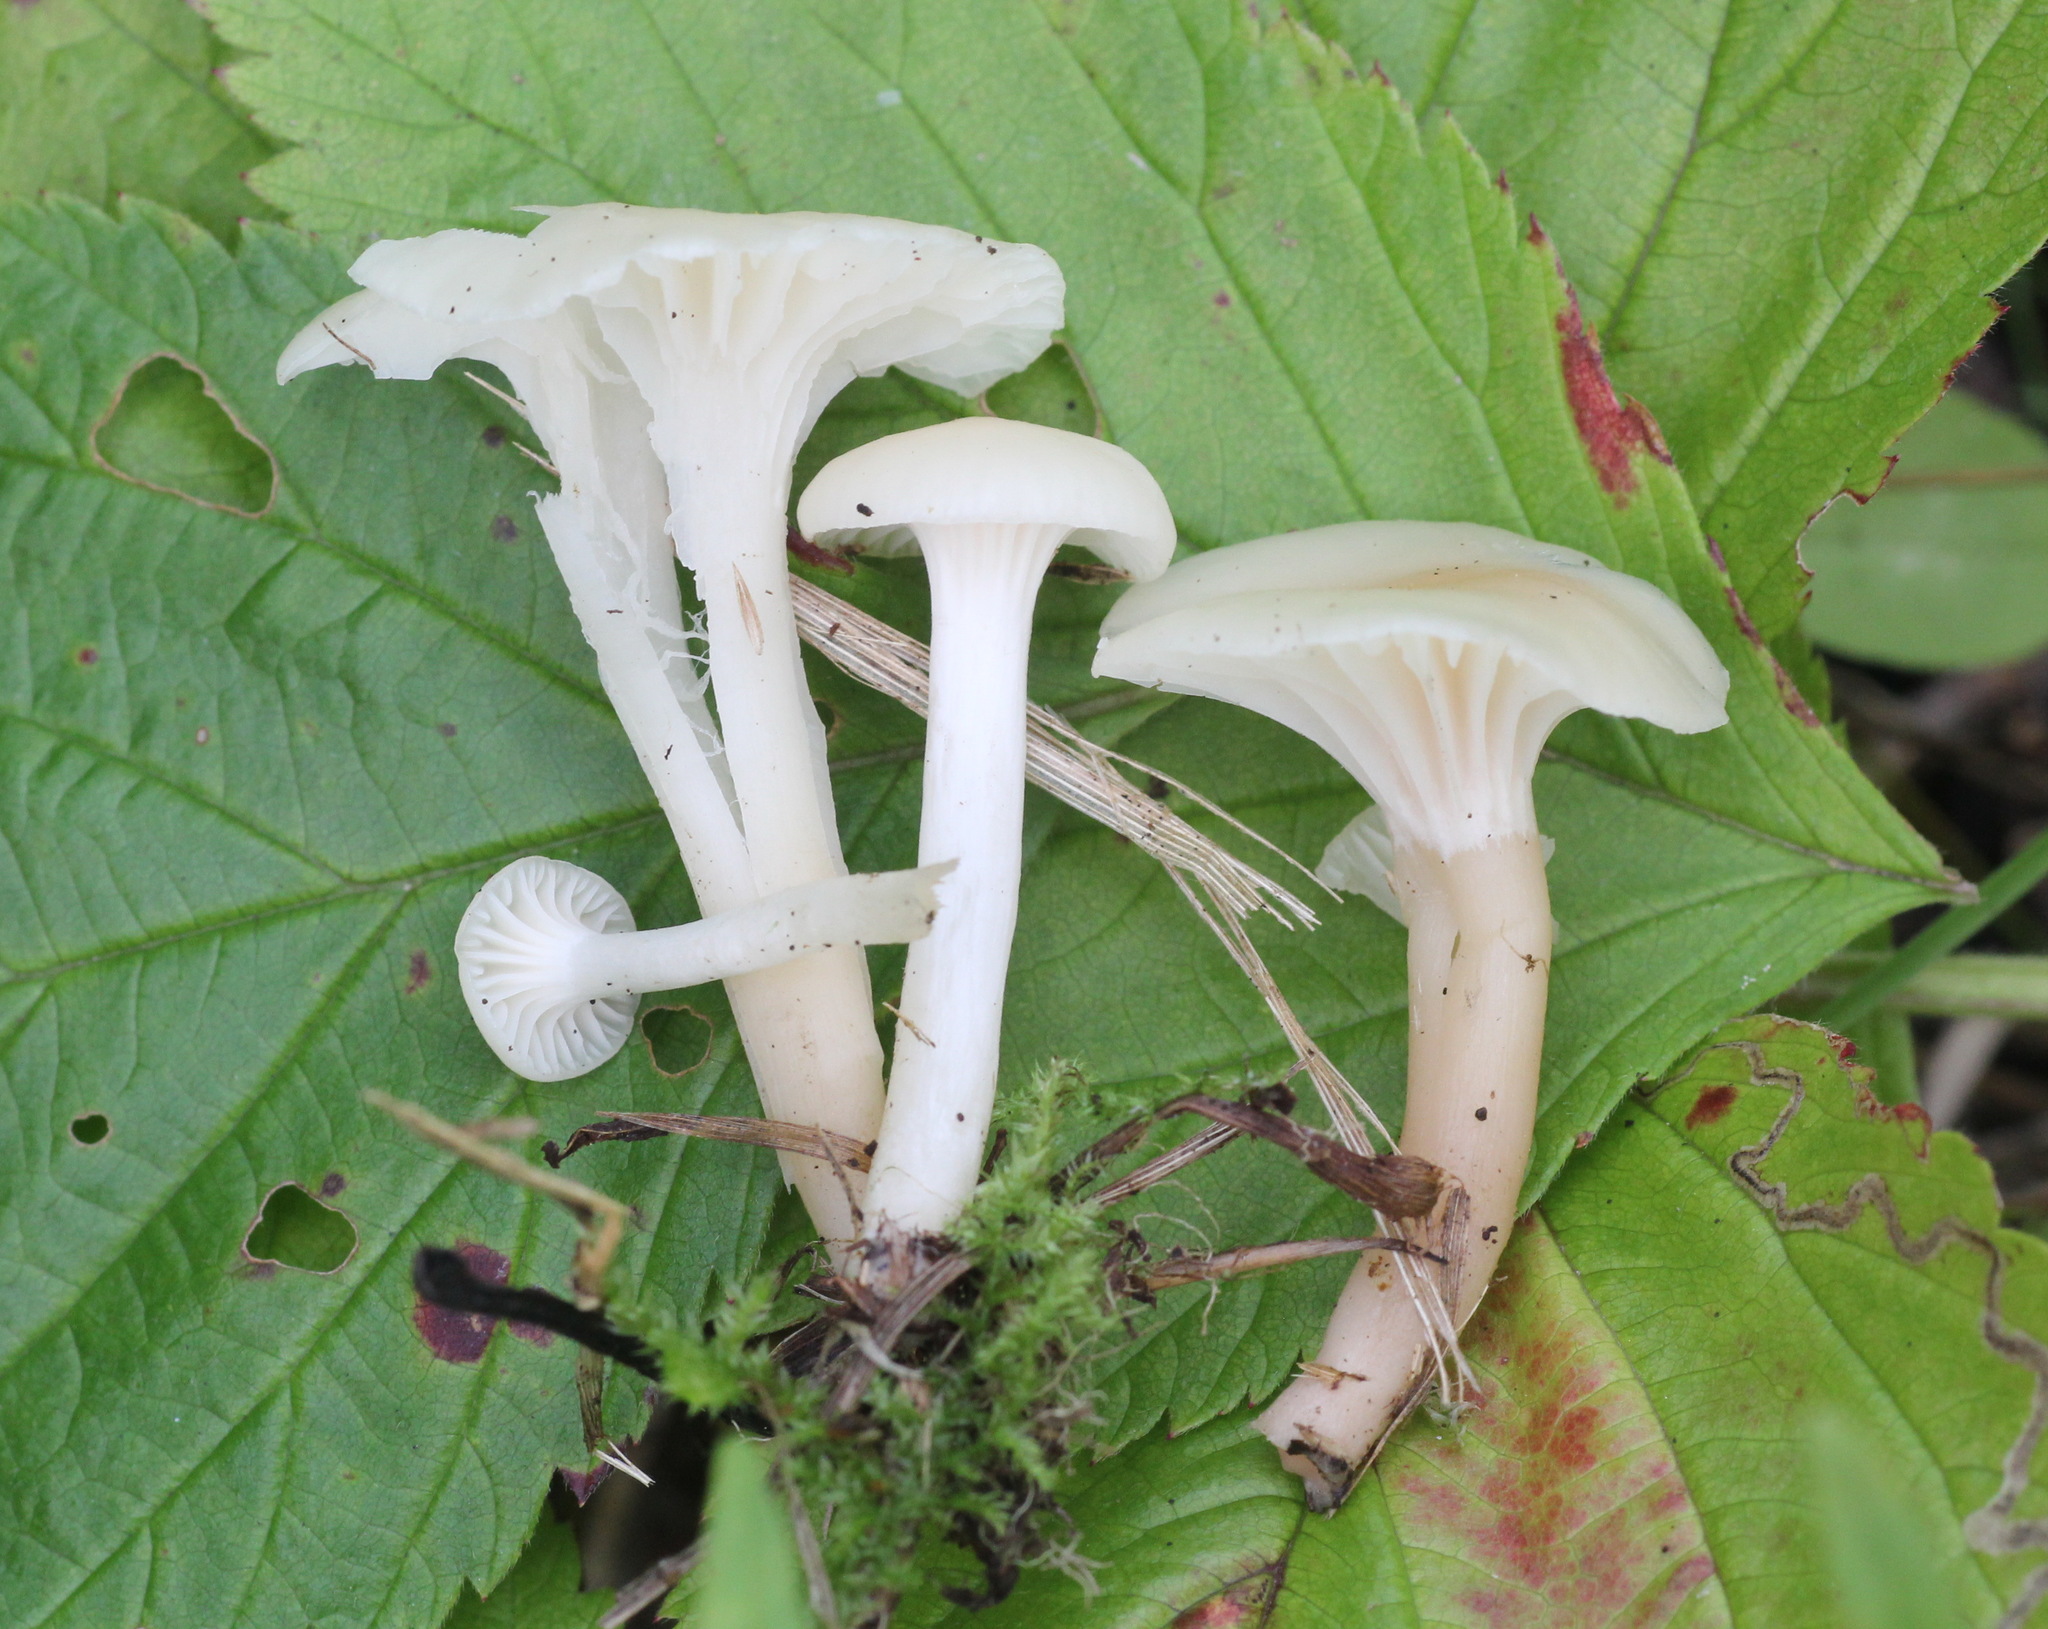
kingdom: Fungi
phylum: Basidiomycota
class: Agaricomycetes
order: Agaricales
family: Hygrophoraceae
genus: Cuphophyllus
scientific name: Cuphophyllus virgineus
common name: Snowy waxcap
